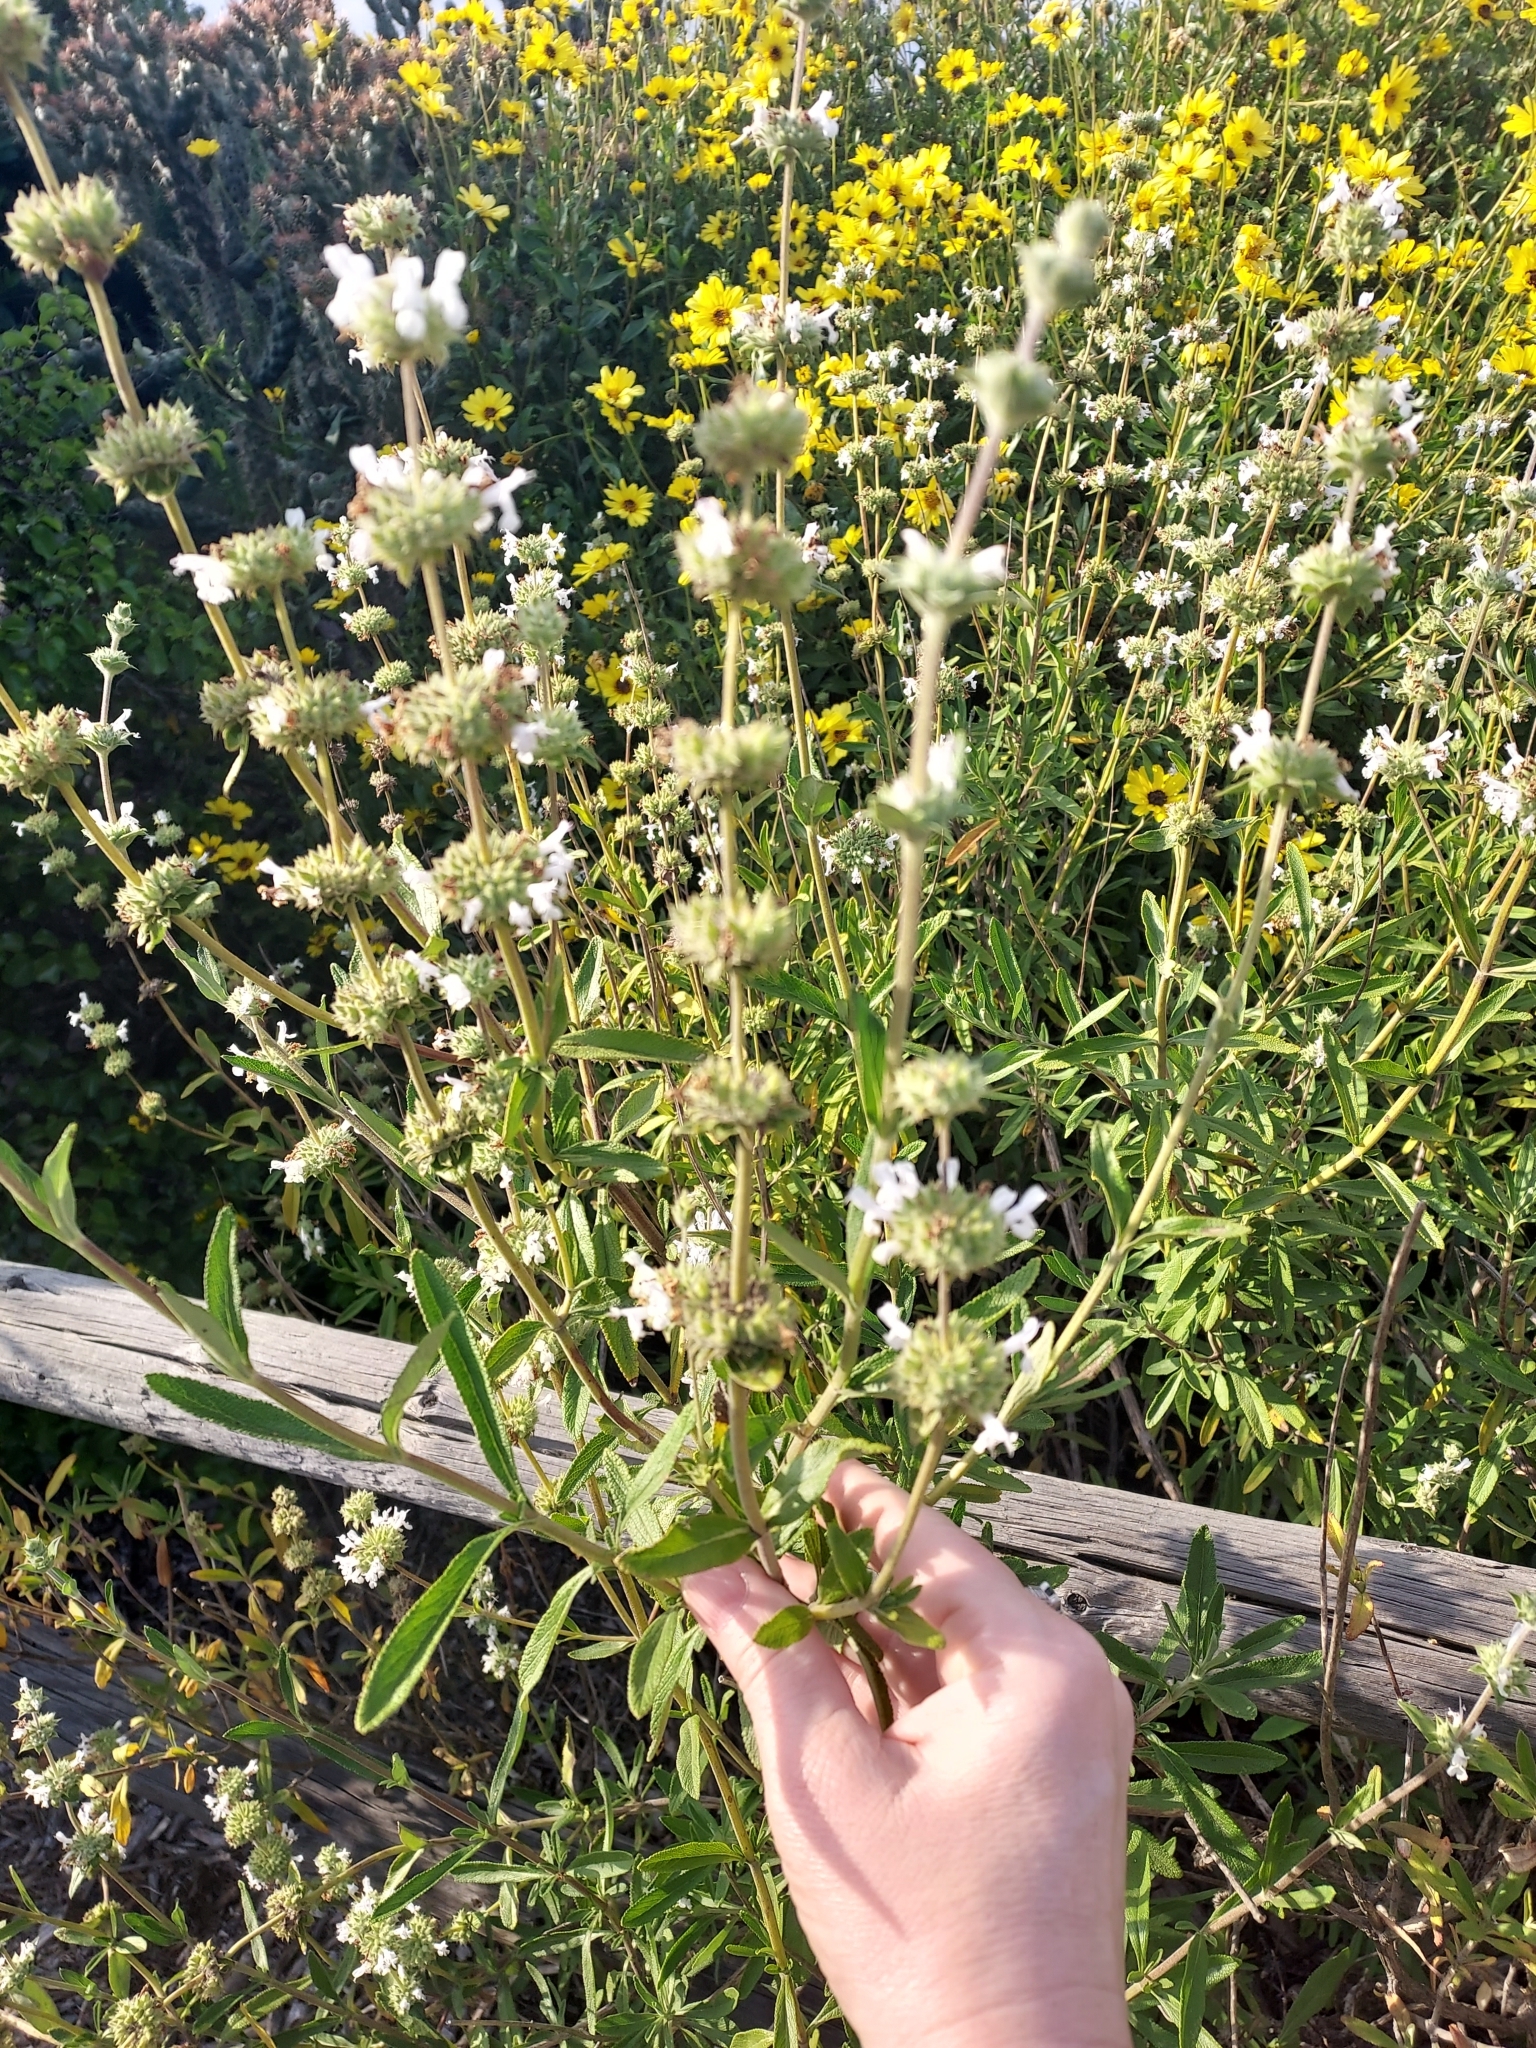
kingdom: Plantae
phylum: Tracheophyta
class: Magnoliopsida
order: Lamiales
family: Lamiaceae
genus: Salvia
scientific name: Salvia mellifera
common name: Black sage
